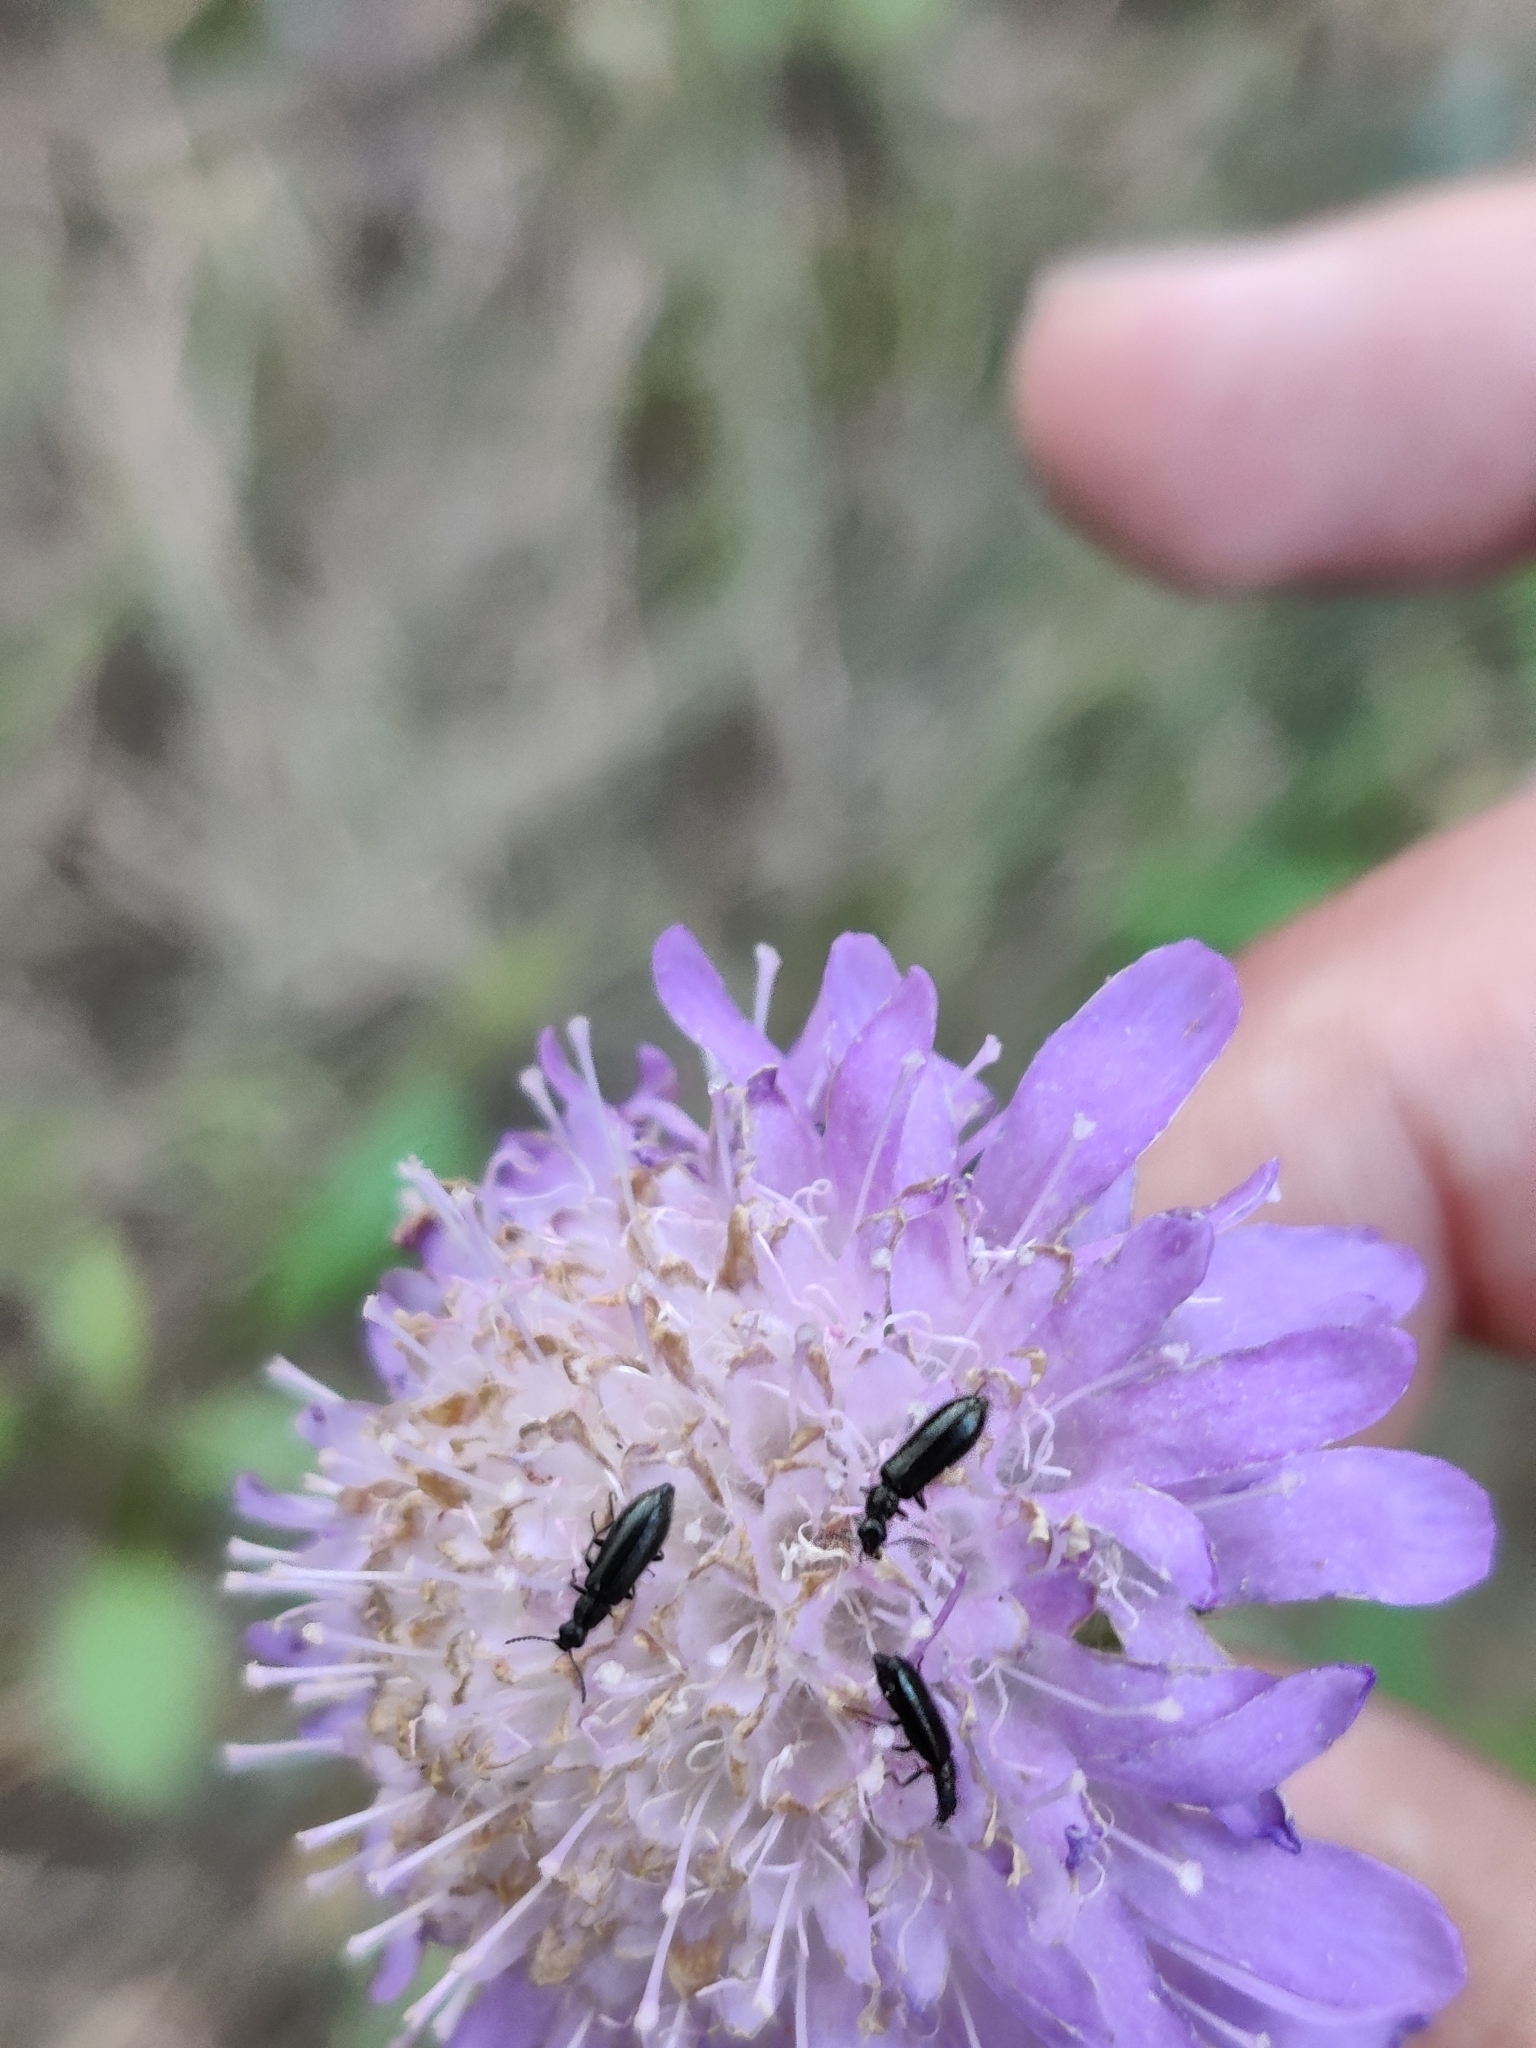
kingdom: Plantae
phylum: Tracheophyta
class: Magnoliopsida
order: Dipsacales
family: Caprifoliaceae
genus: Knautia
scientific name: Knautia arvensis
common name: Field scabiosa
